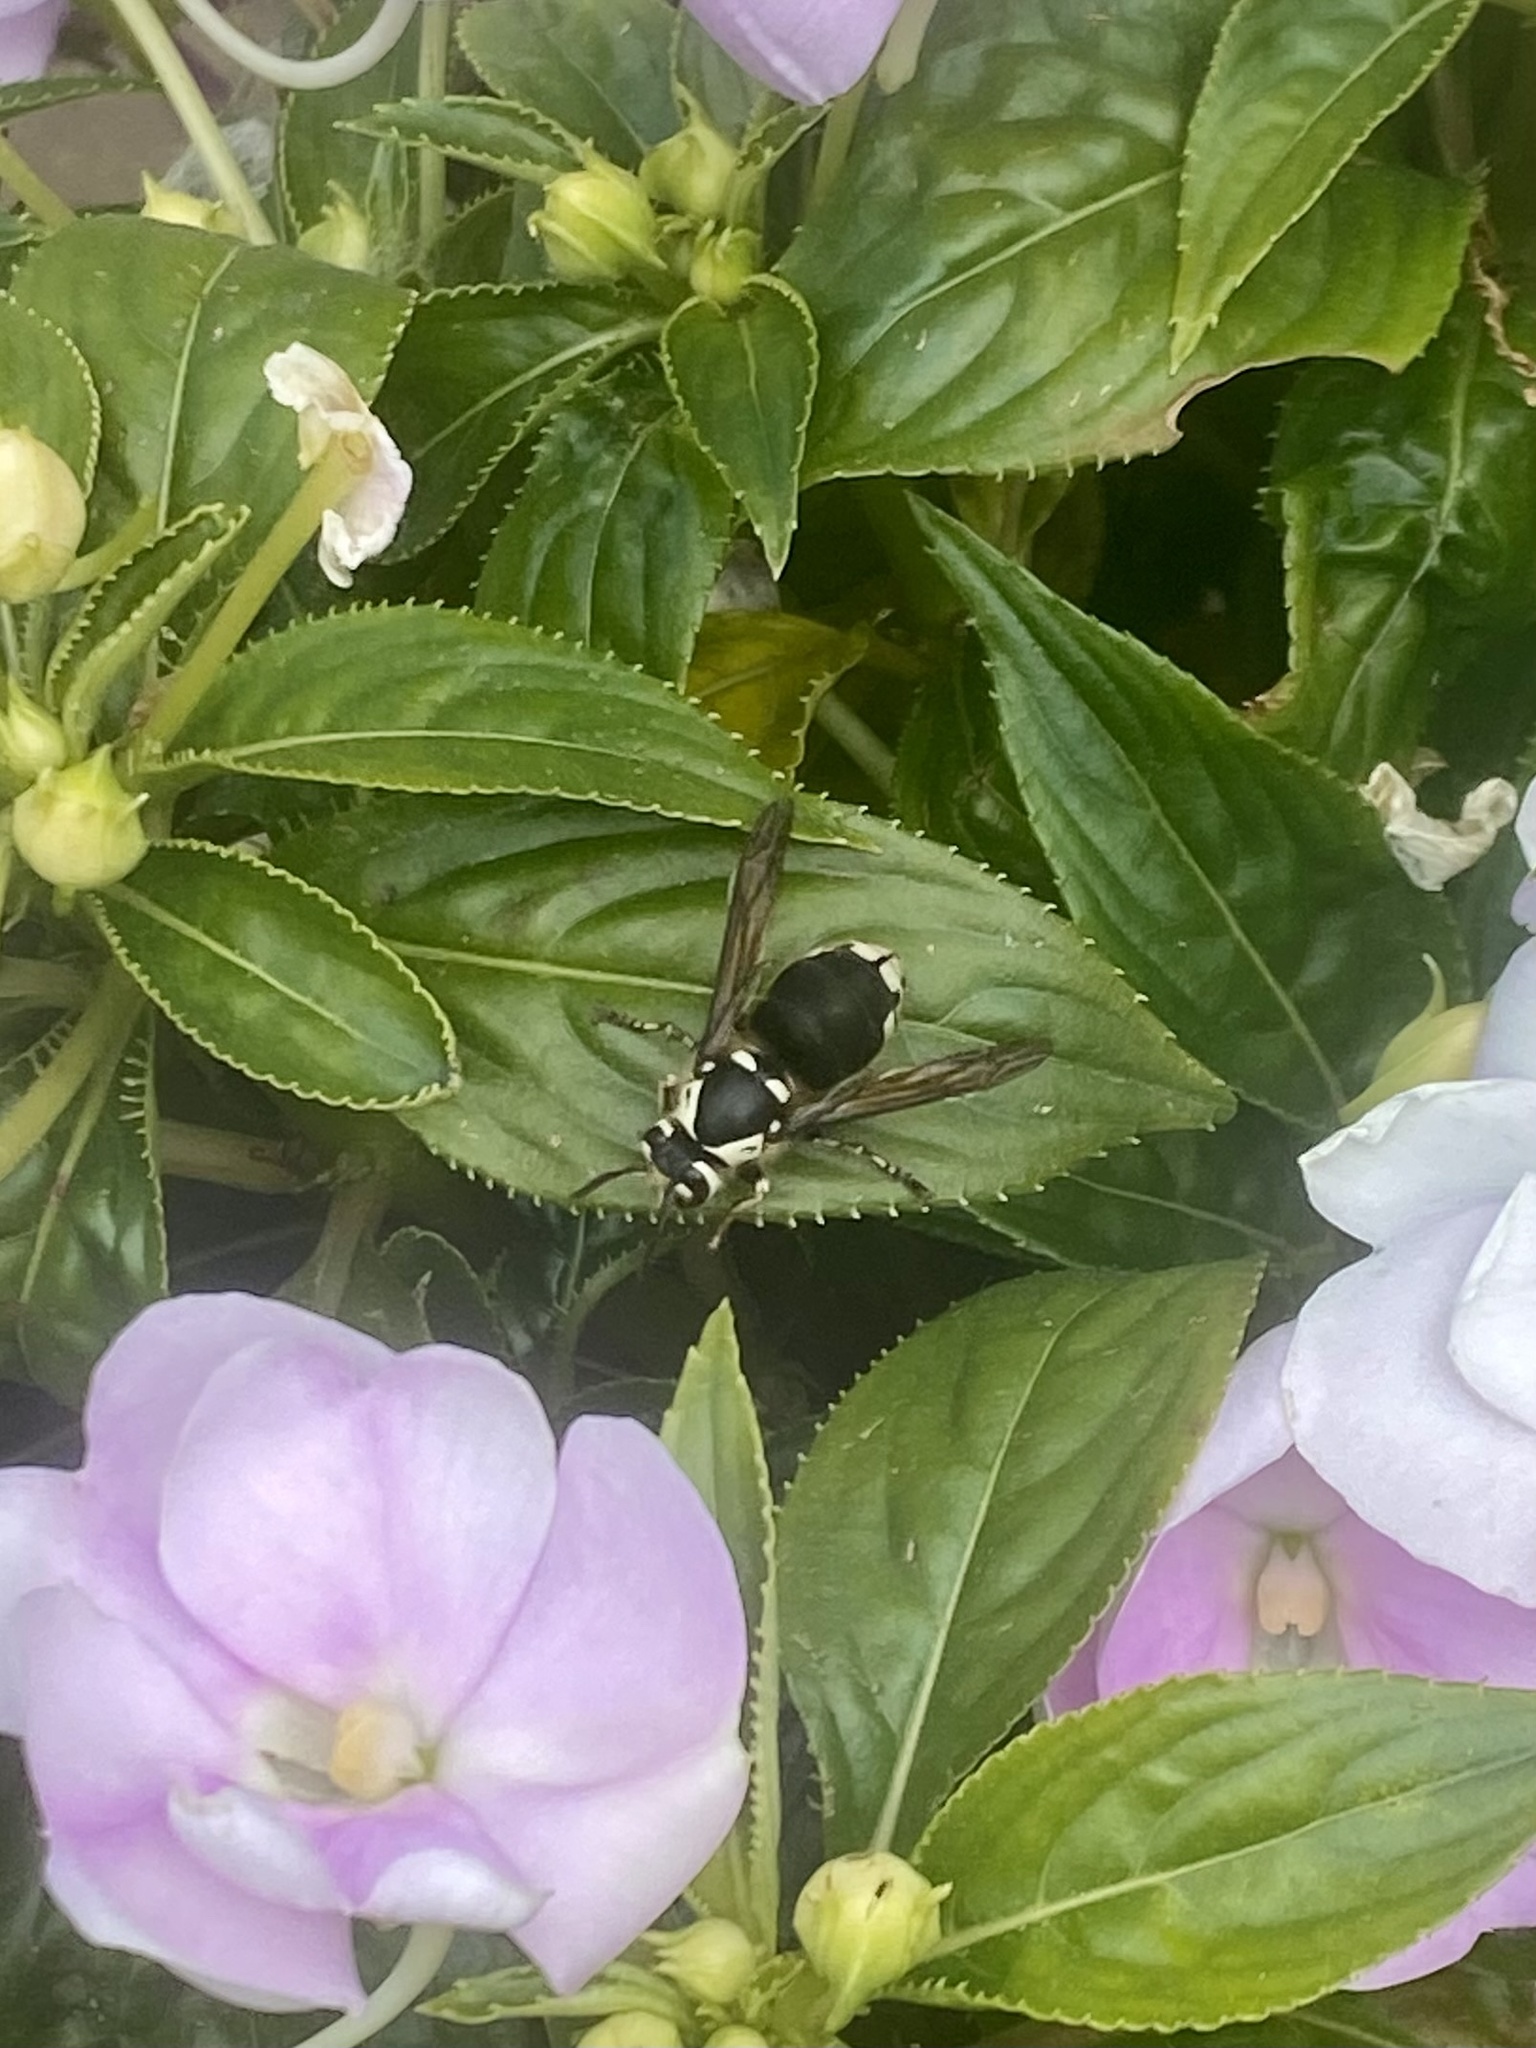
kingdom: Animalia
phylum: Arthropoda
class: Insecta
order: Hymenoptera
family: Vespidae
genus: Dolichovespula
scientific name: Dolichovespula maculata
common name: Bald-faced hornet
